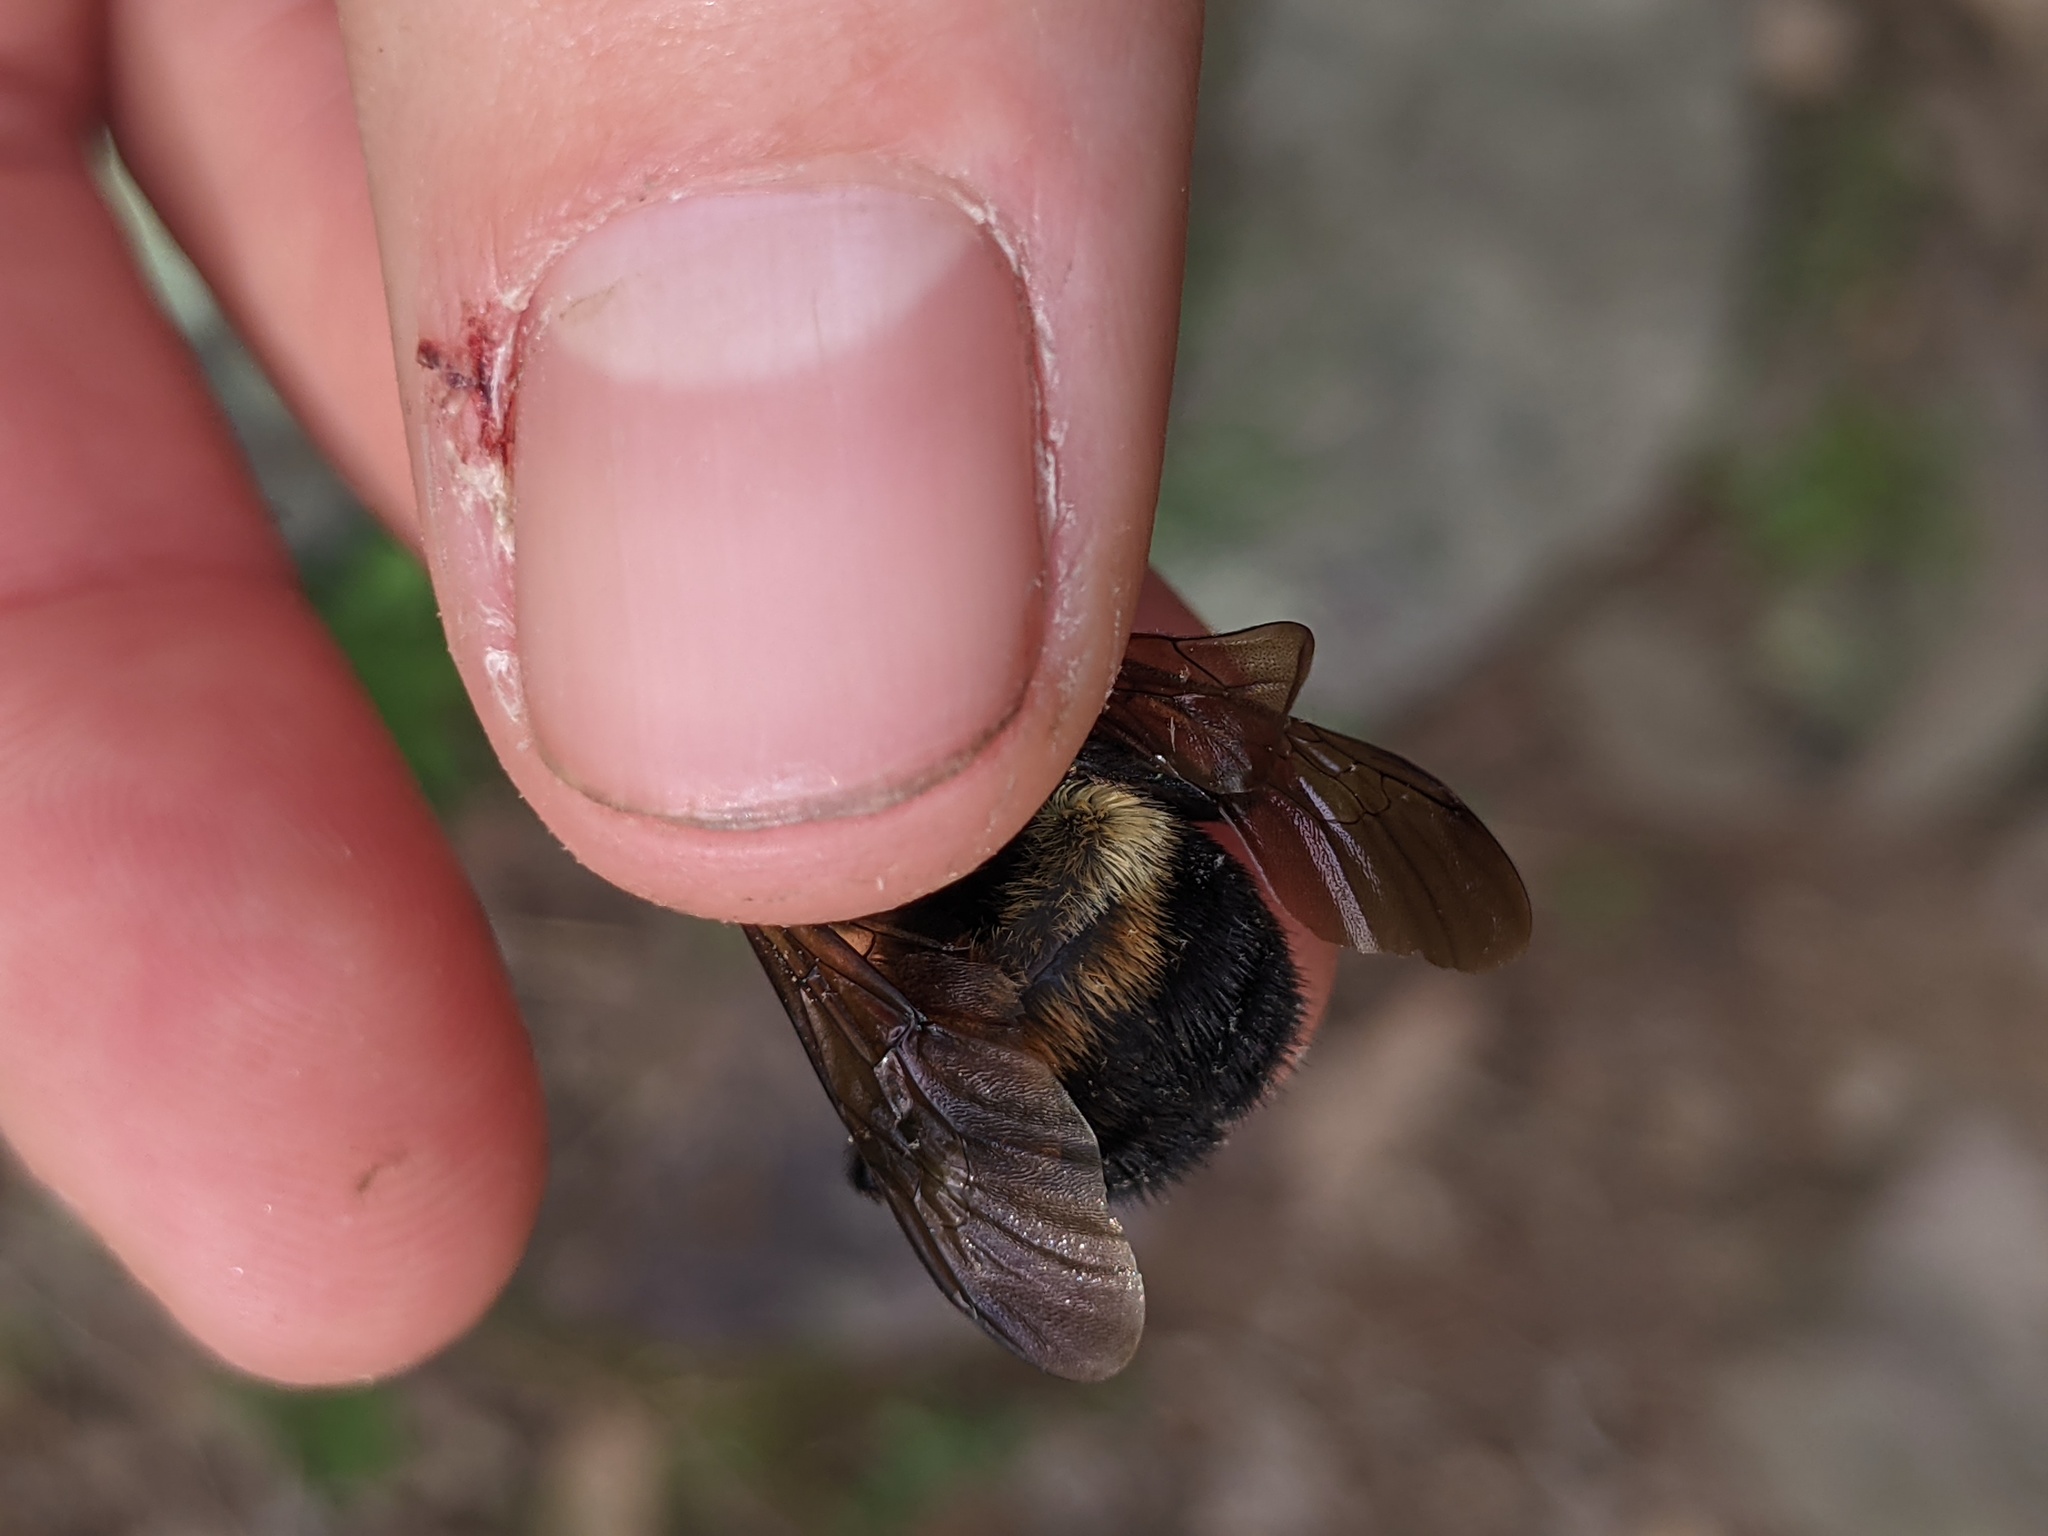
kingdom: Animalia
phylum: Arthropoda
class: Insecta
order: Hymenoptera
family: Apidae
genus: Bombus
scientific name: Bombus griseocollis
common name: Brown-belted bumble bee
